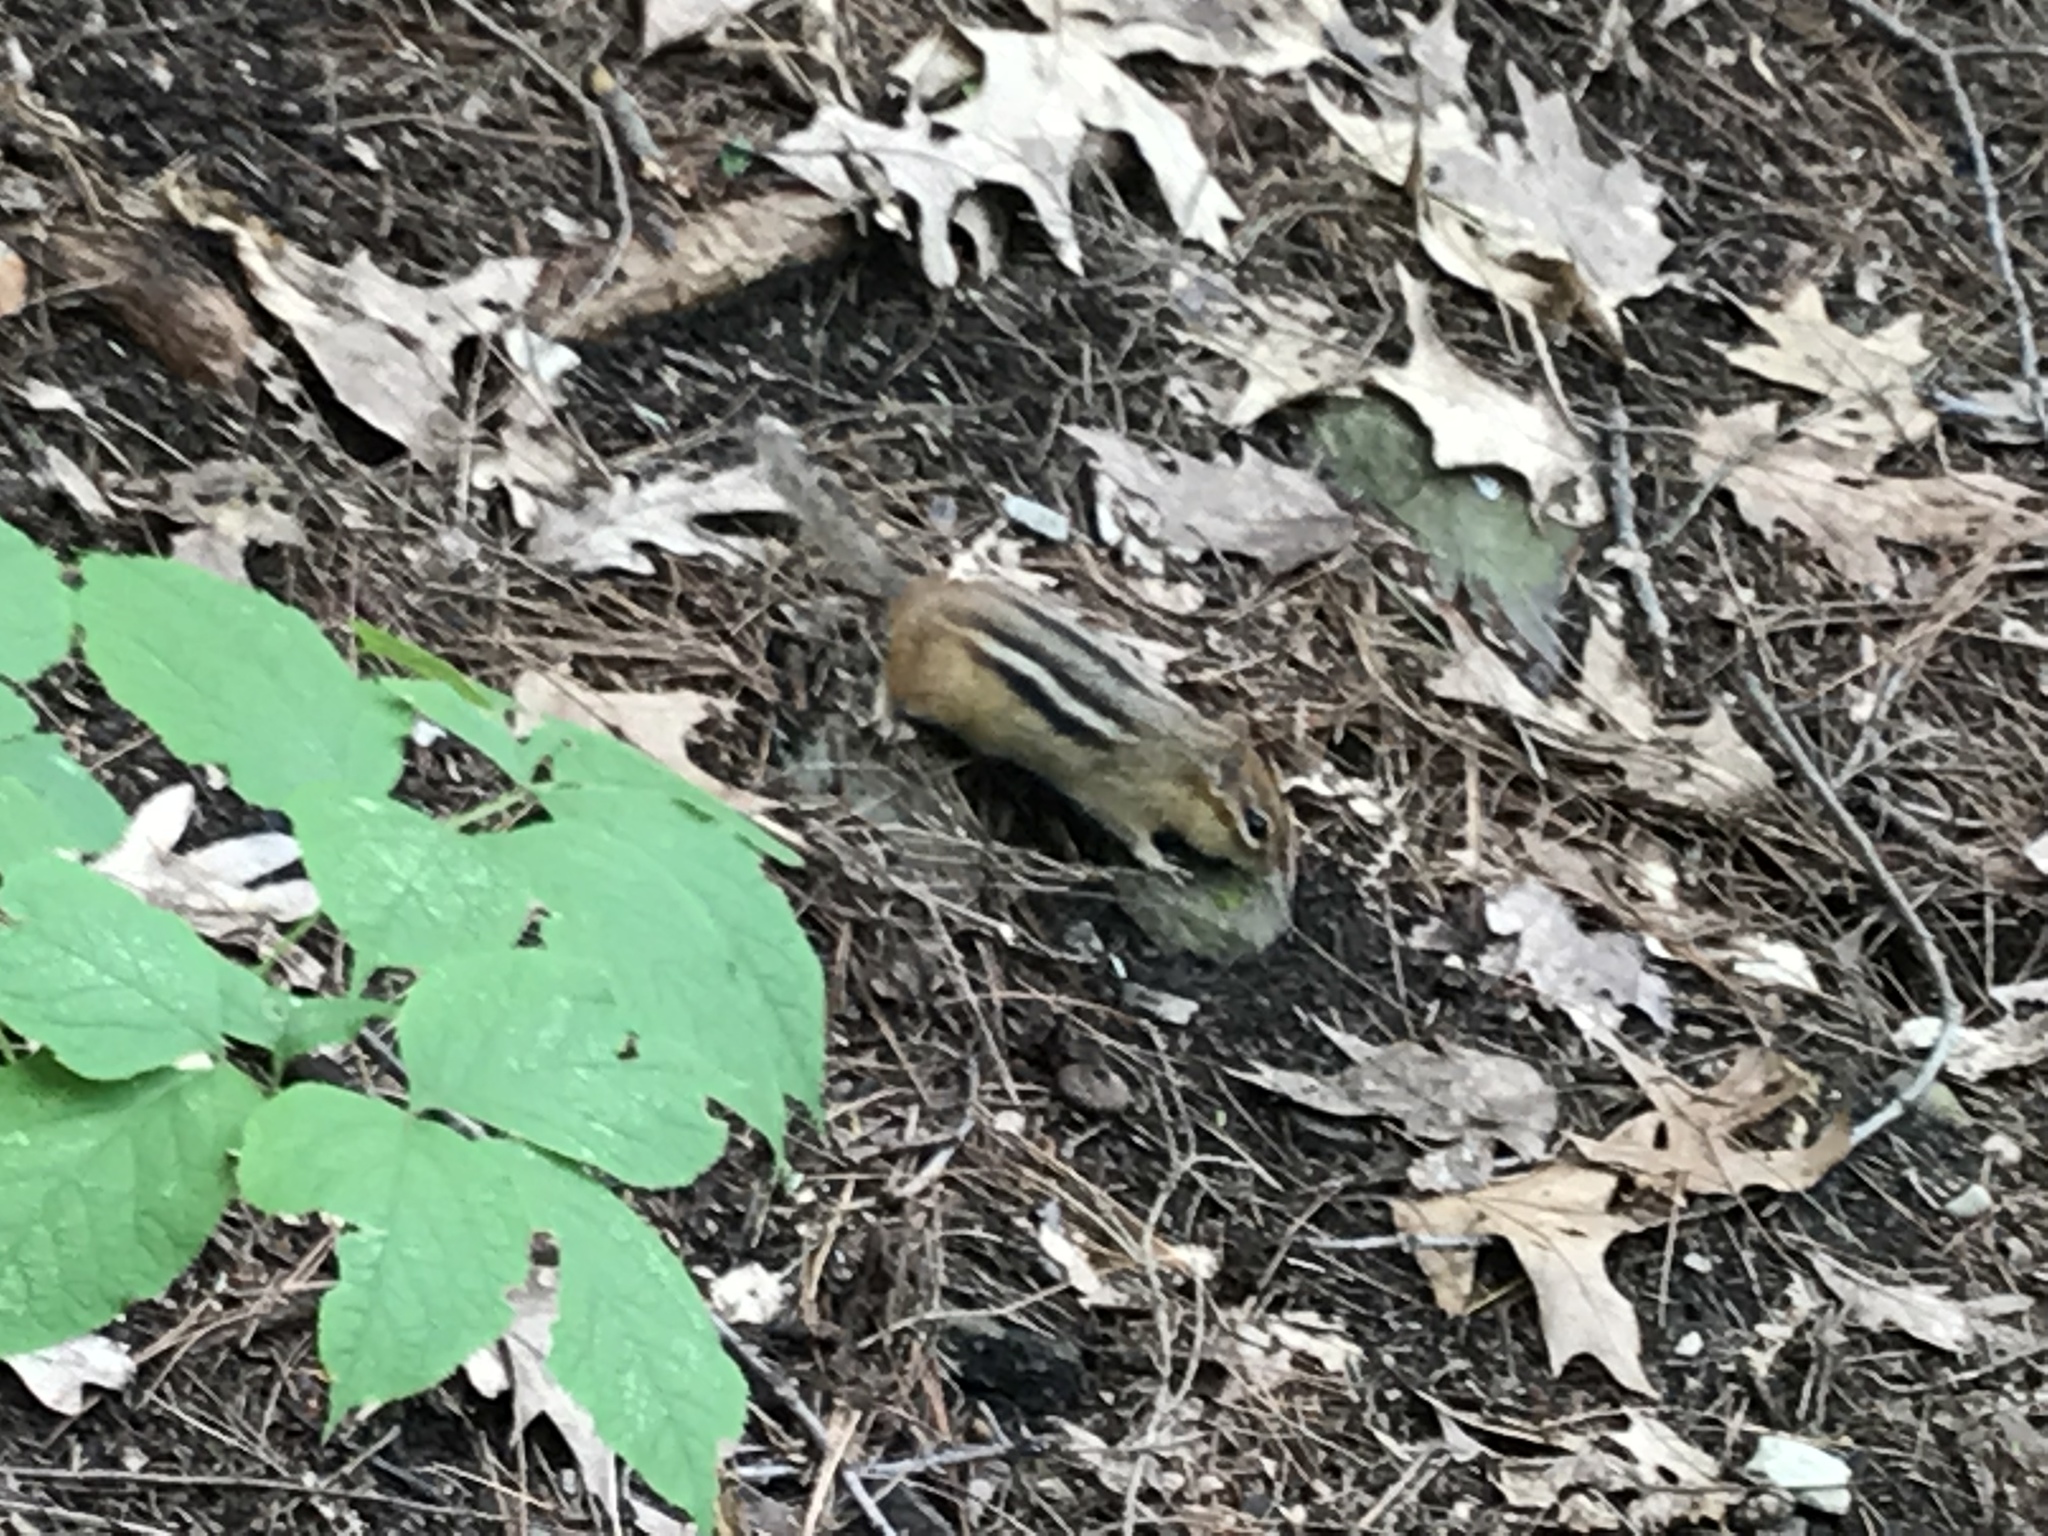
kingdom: Animalia
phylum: Chordata
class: Mammalia
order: Rodentia
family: Sciuridae
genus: Tamias
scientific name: Tamias striatus
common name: Eastern chipmunk
